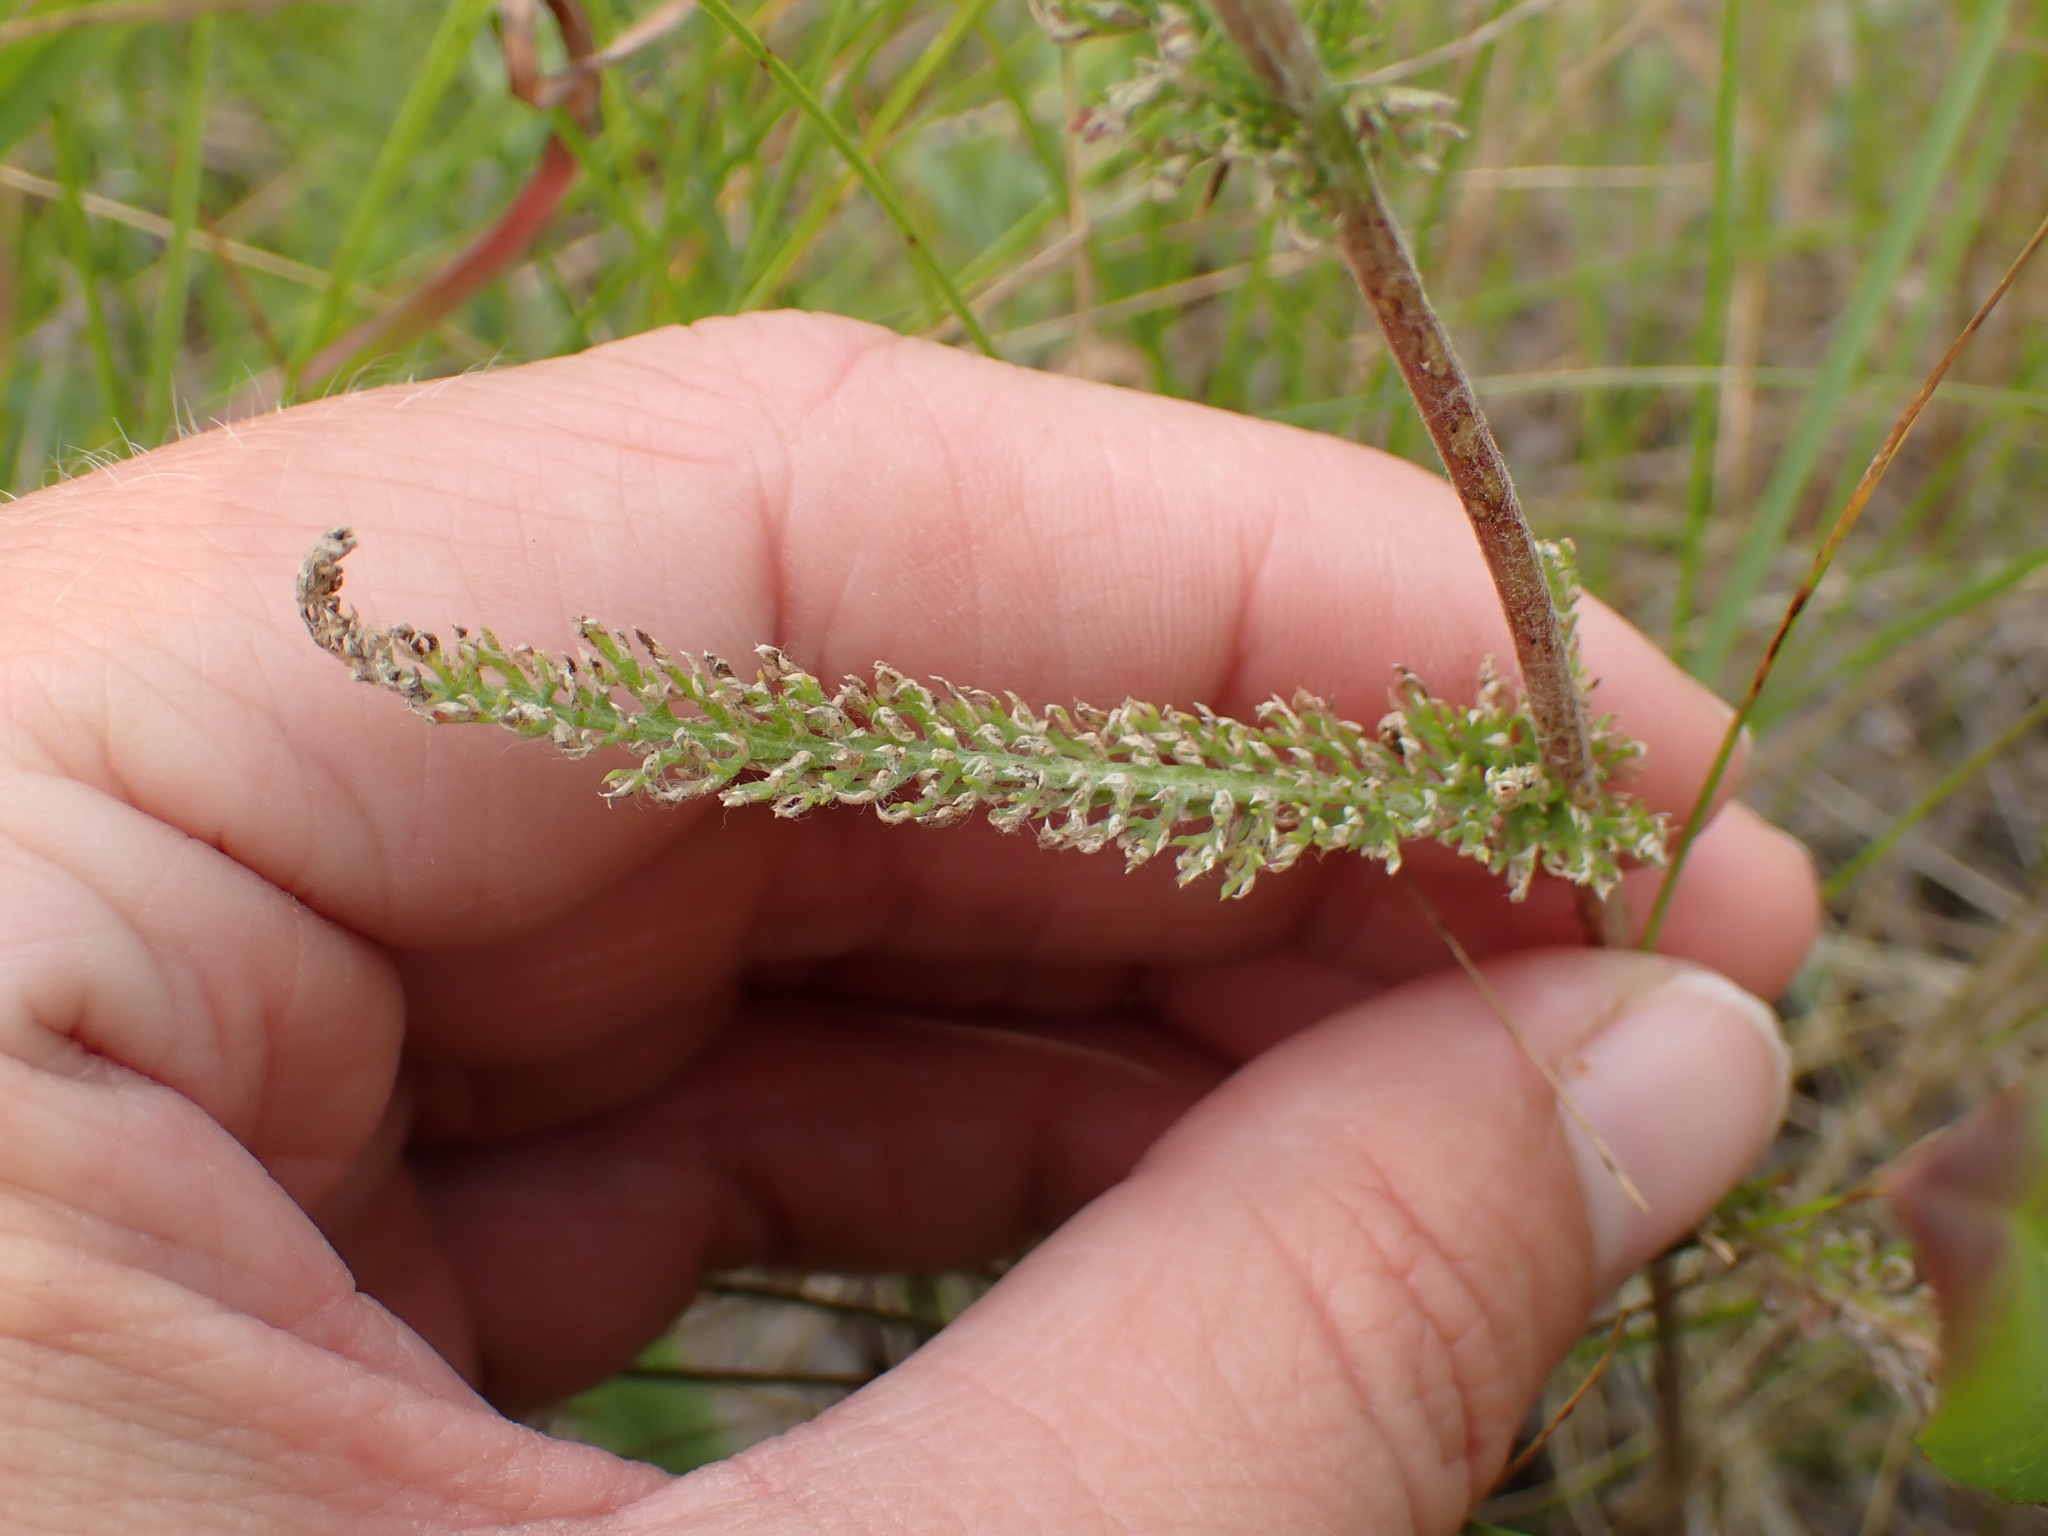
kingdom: Plantae
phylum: Tracheophyta
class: Magnoliopsida
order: Asterales
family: Asteraceae
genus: Achillea
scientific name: Achillea millefolium
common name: Yarrow
